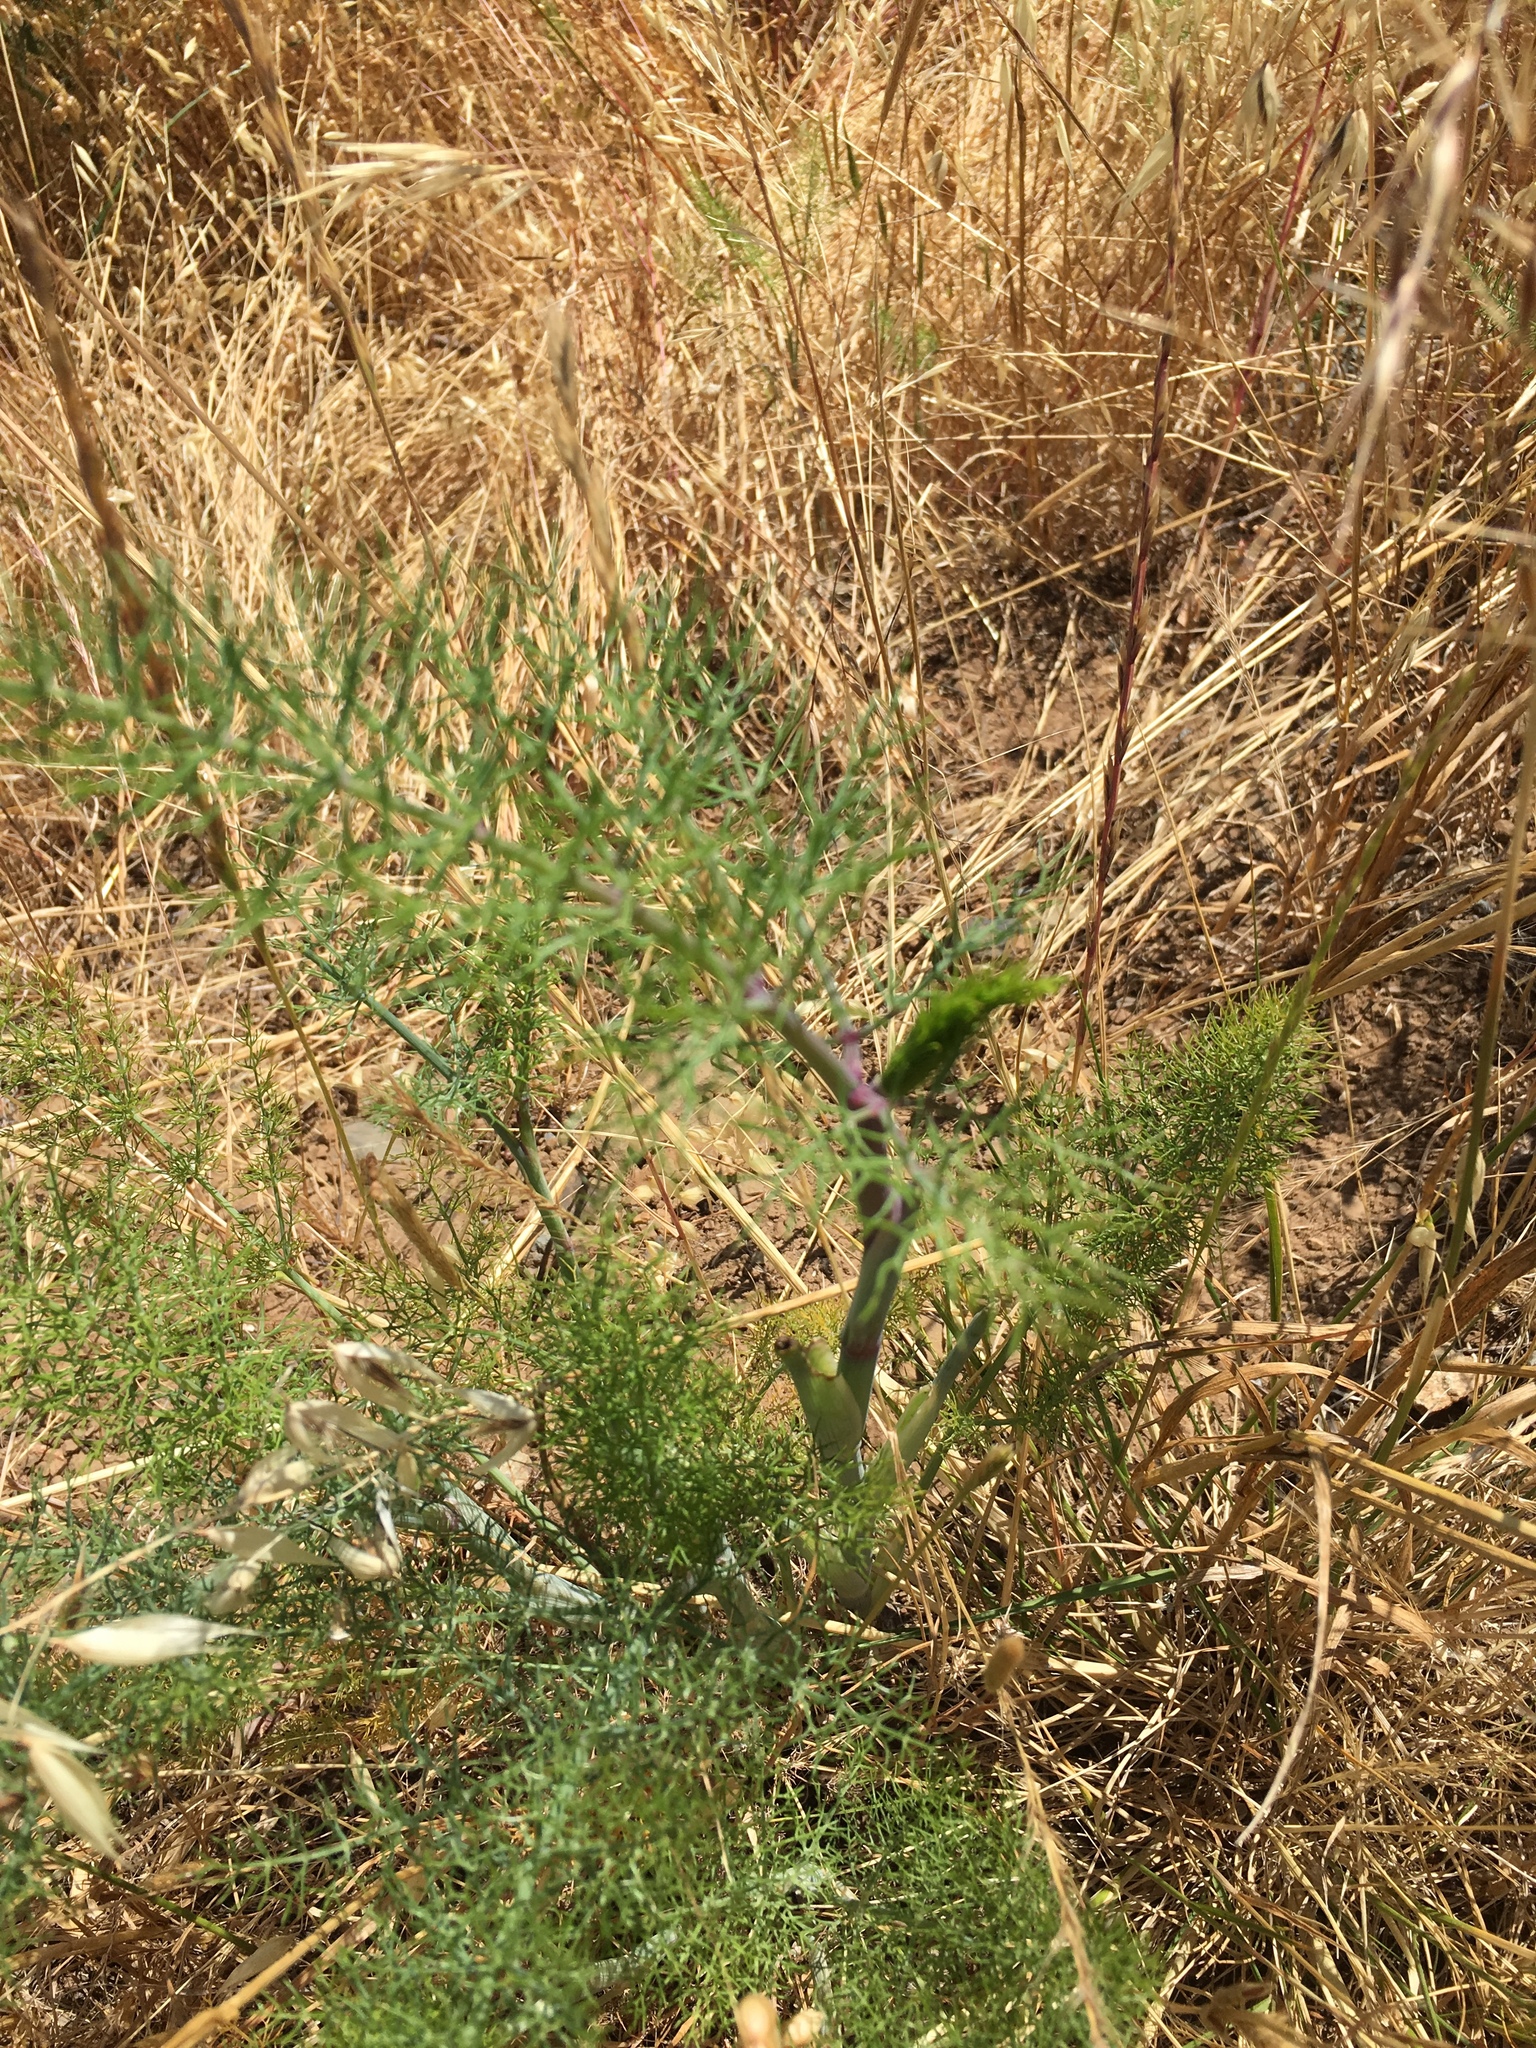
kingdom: Plantae
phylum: Tracheophyta
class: Magnoliopsida
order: Apiales
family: Apiaceae
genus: Foeniculum
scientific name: Foeniculum vulgare
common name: Fennel
